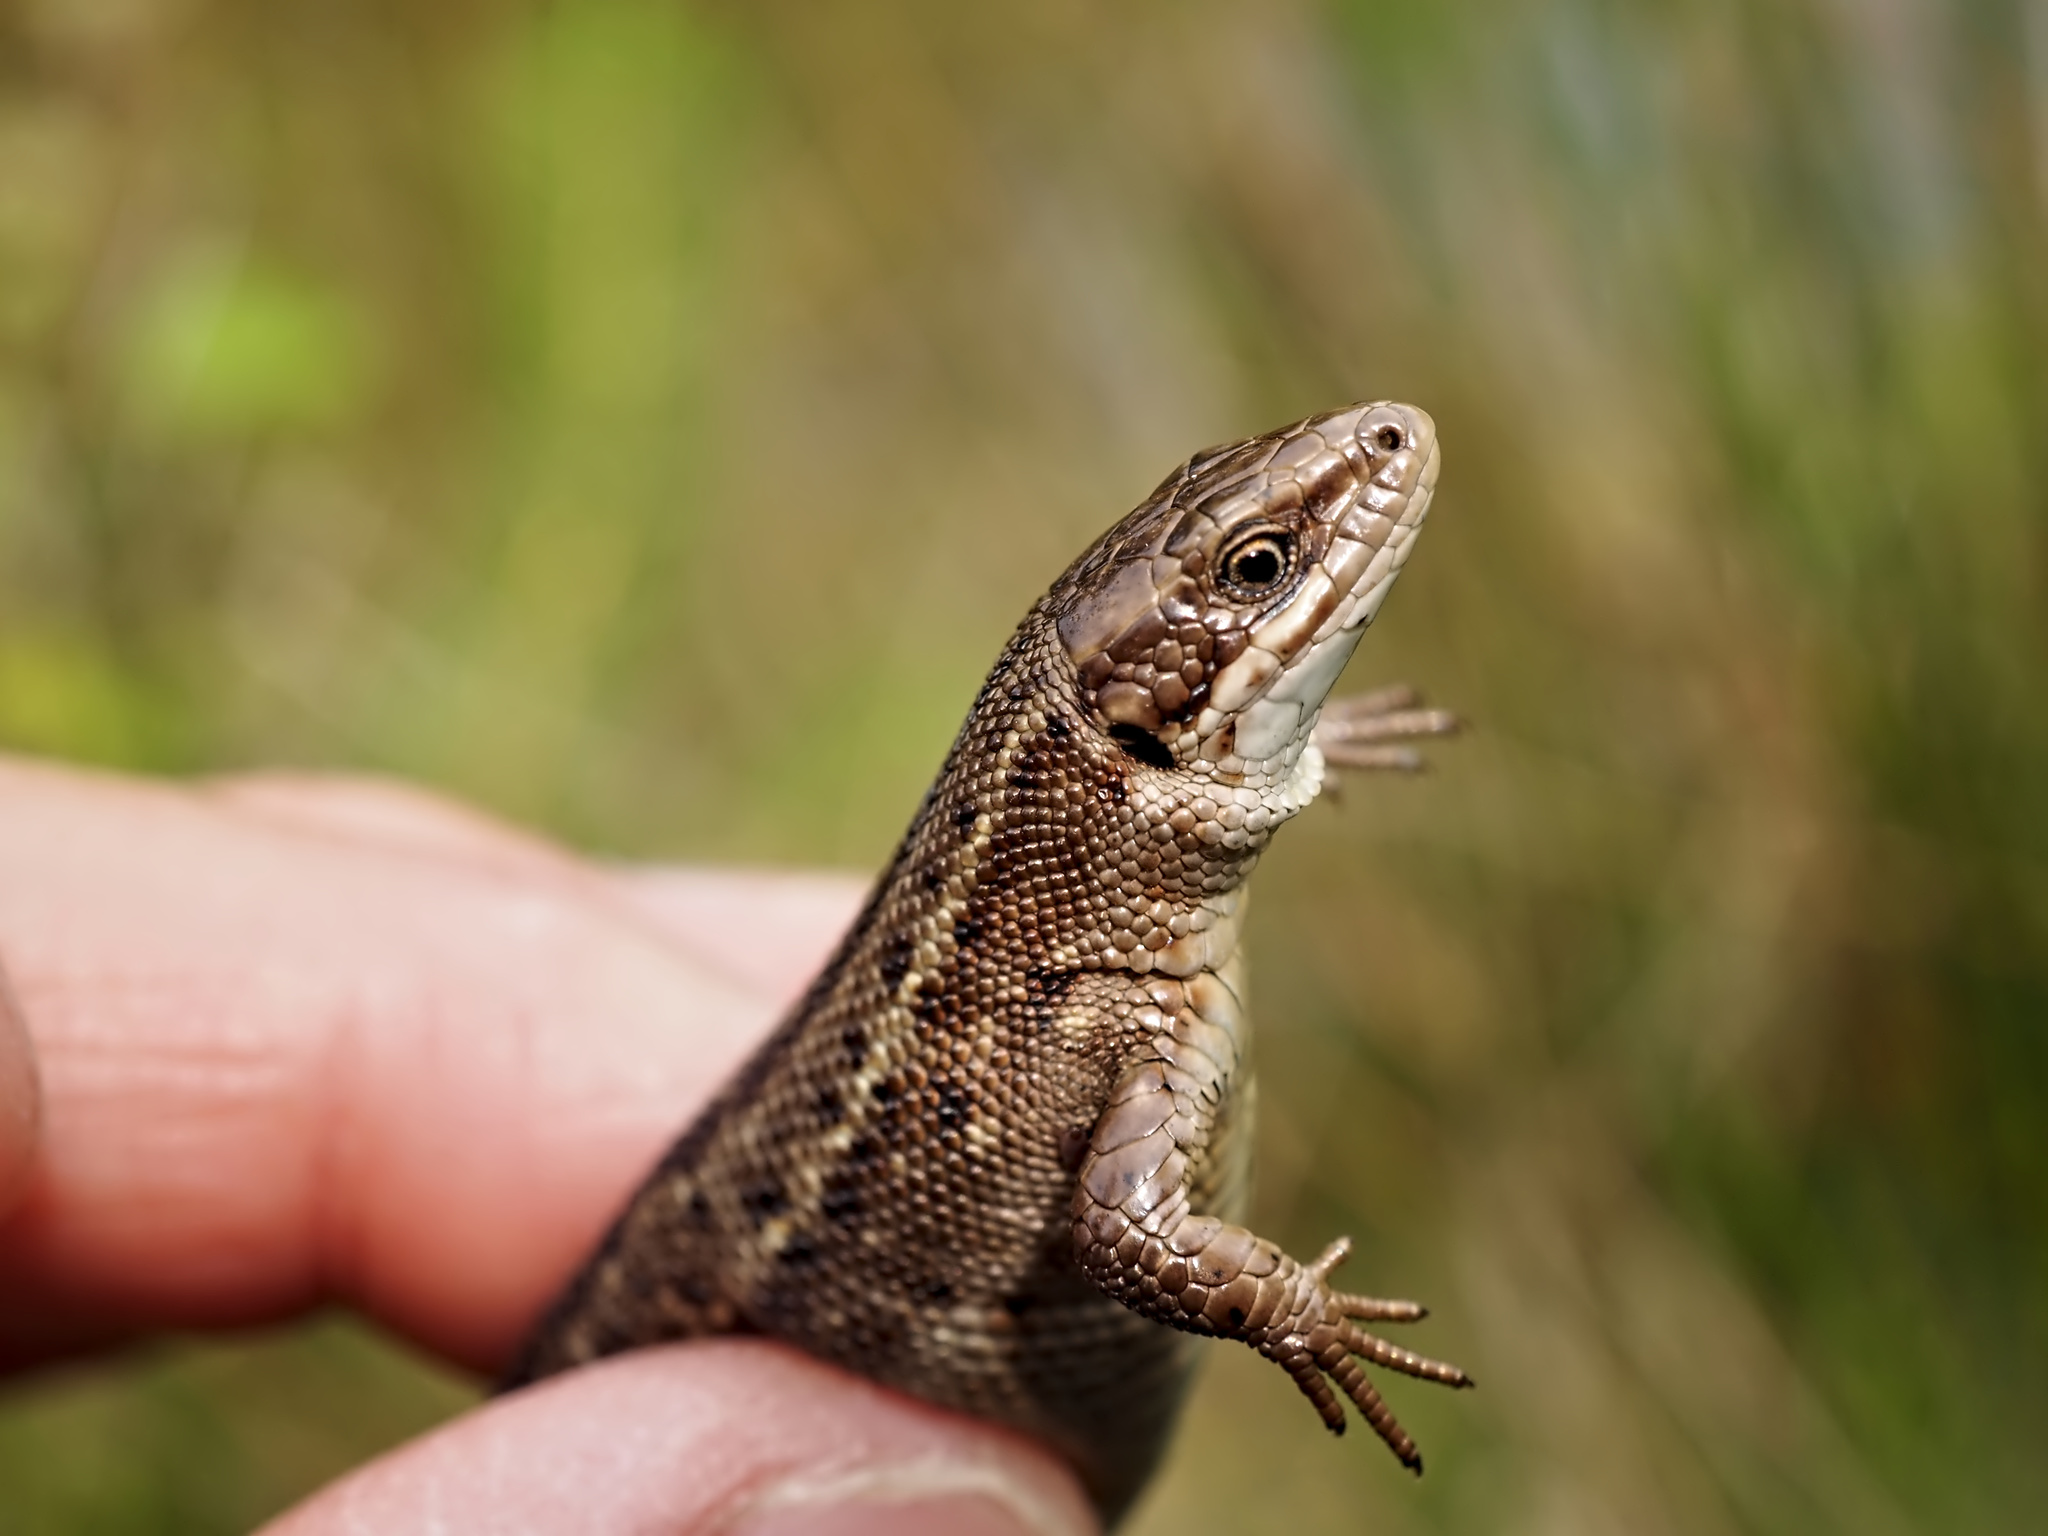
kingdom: Animalia
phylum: Chordata
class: Squamata
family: Lacertidae
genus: Zootoca
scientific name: Zootoca vivipara
